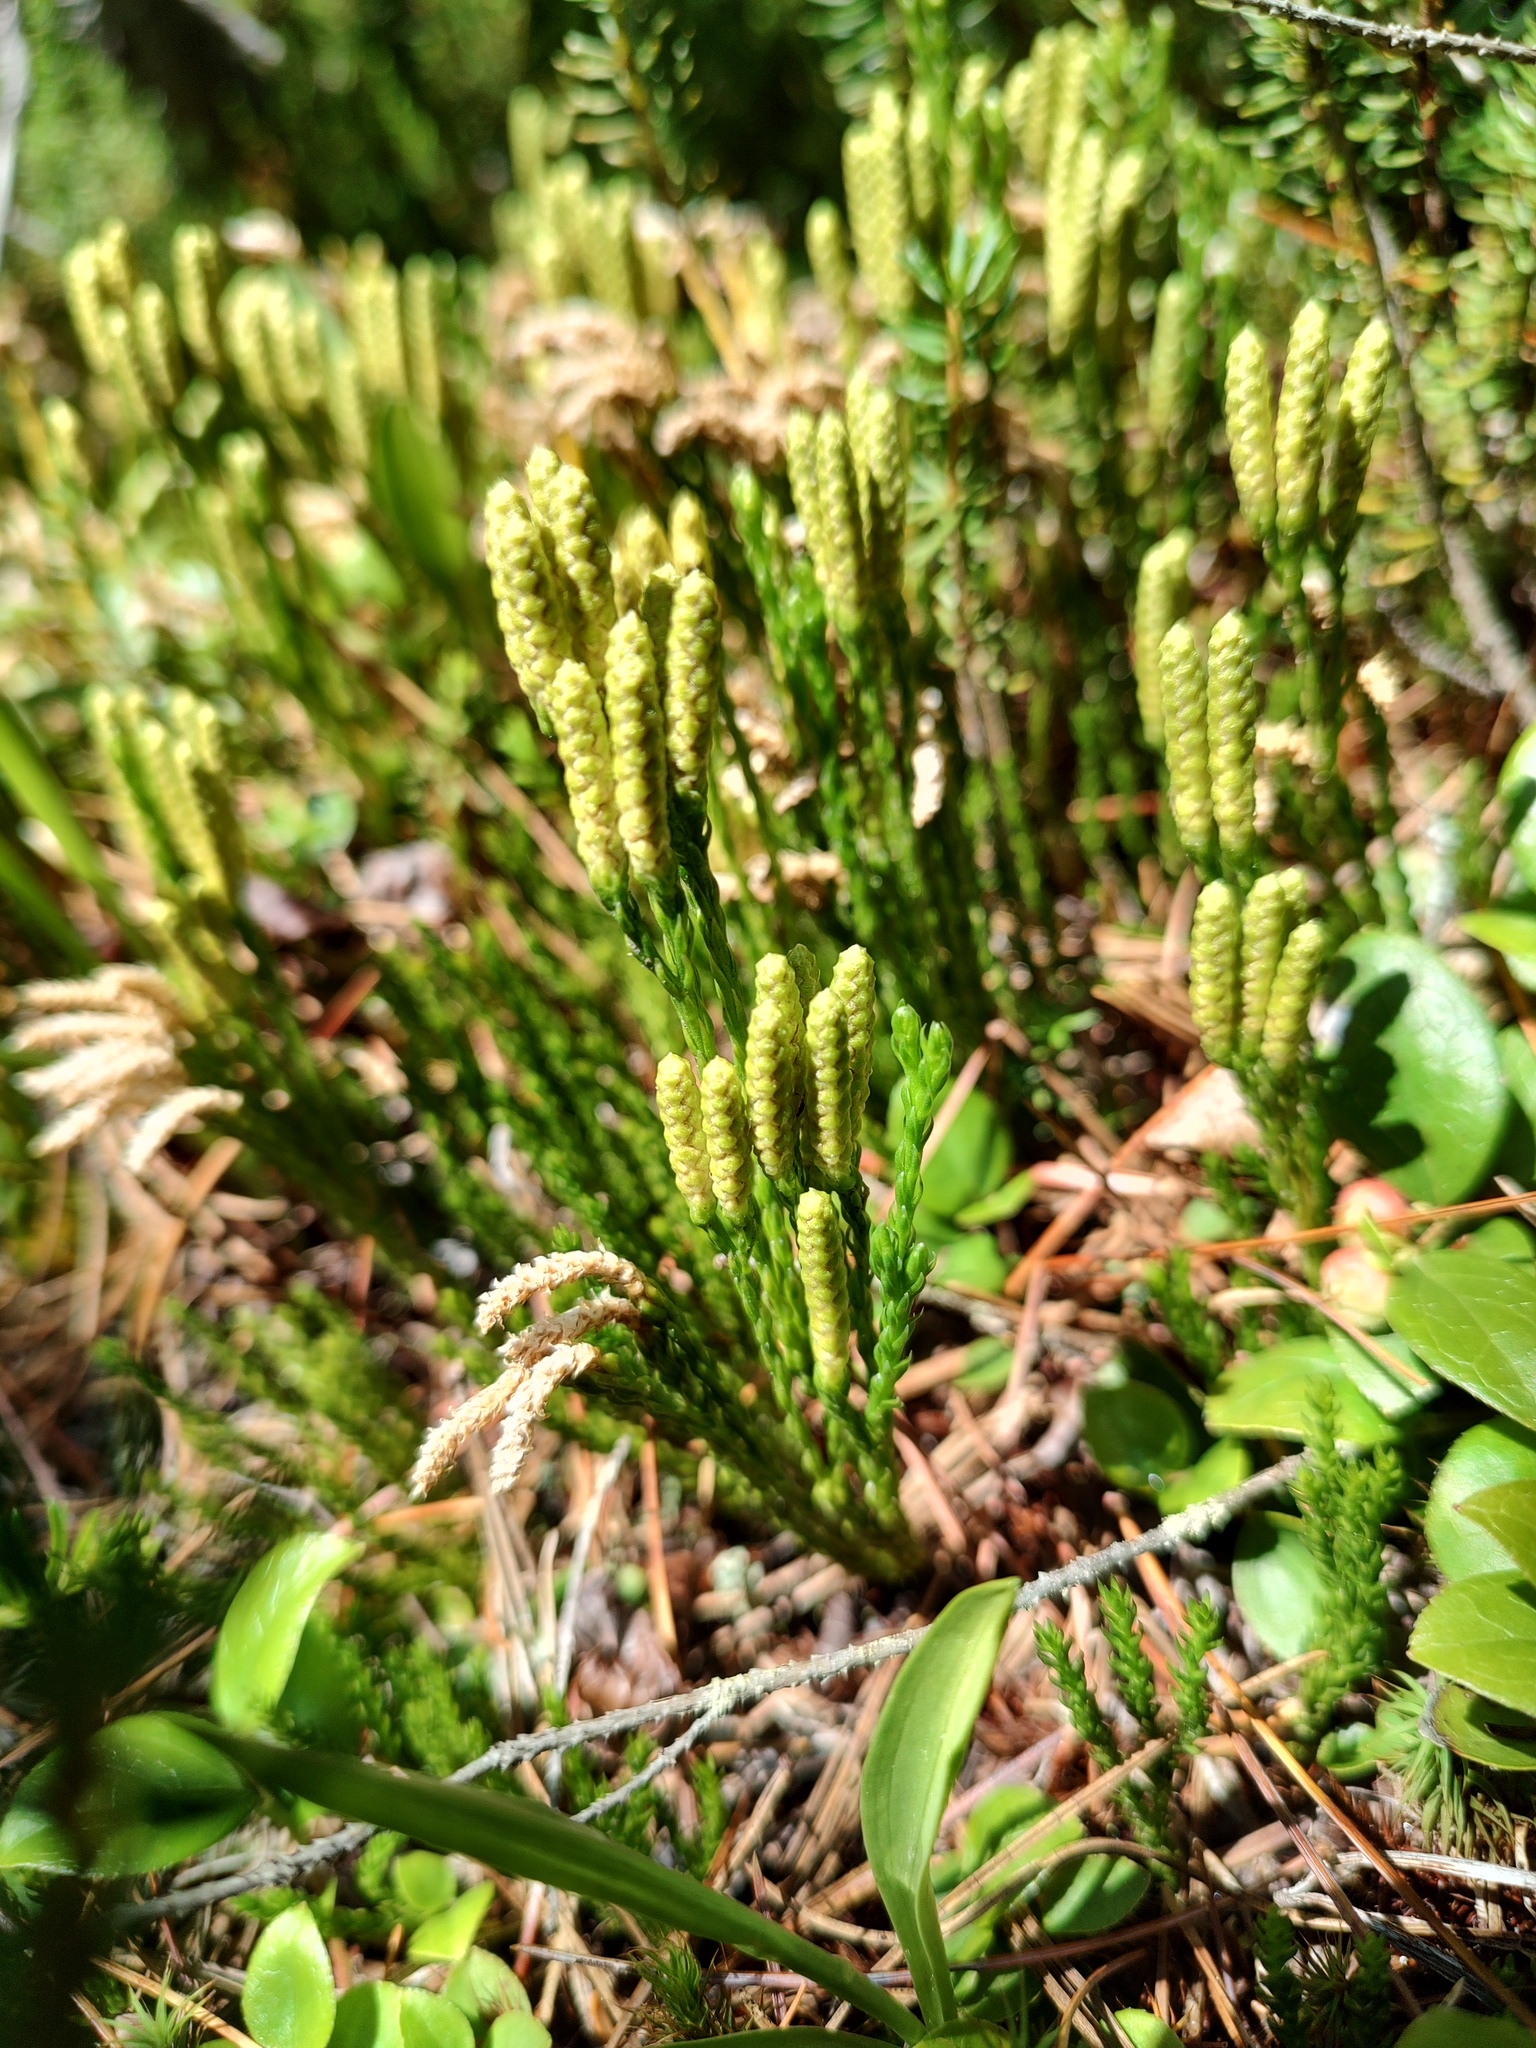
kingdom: Plantae
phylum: Tracheophyta
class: Lycopodiopsida
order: Lycopodiales
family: Lycopodiaceae
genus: Diphasiastrum
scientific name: Diphasiastrum sitchense
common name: Alaska clubmoss
